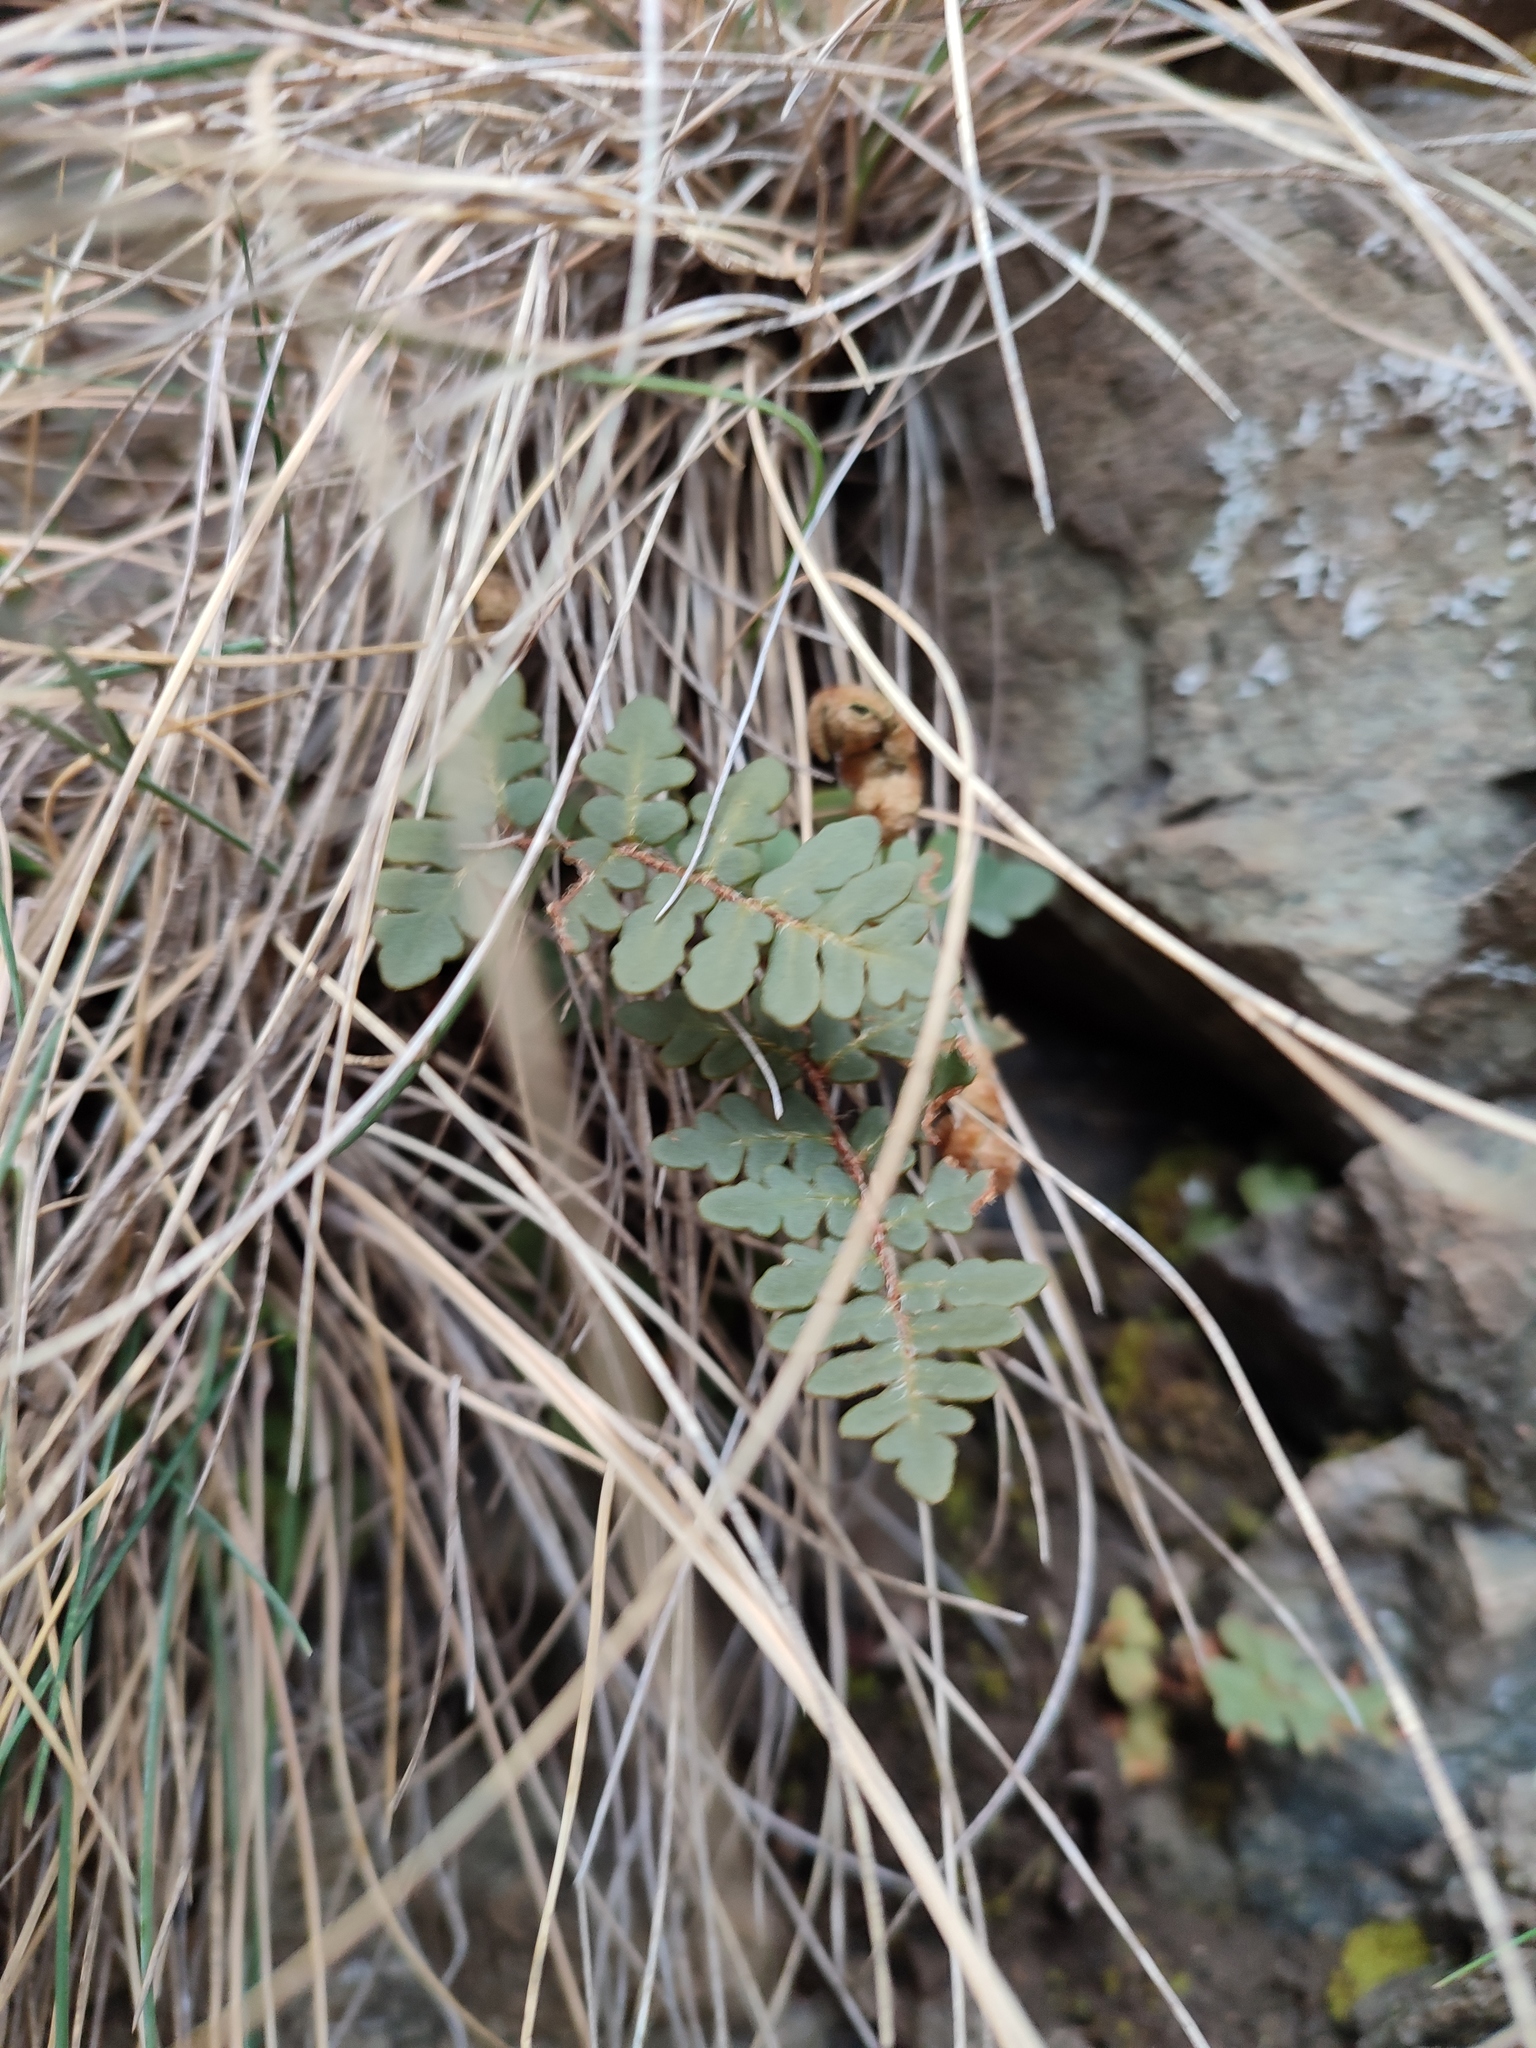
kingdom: Plantae
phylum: Tracheophyta
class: Polypodiopsida
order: Polypodiales
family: Pteridaceae
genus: Paragymnopteris
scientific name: Paragymnopteris marantae
